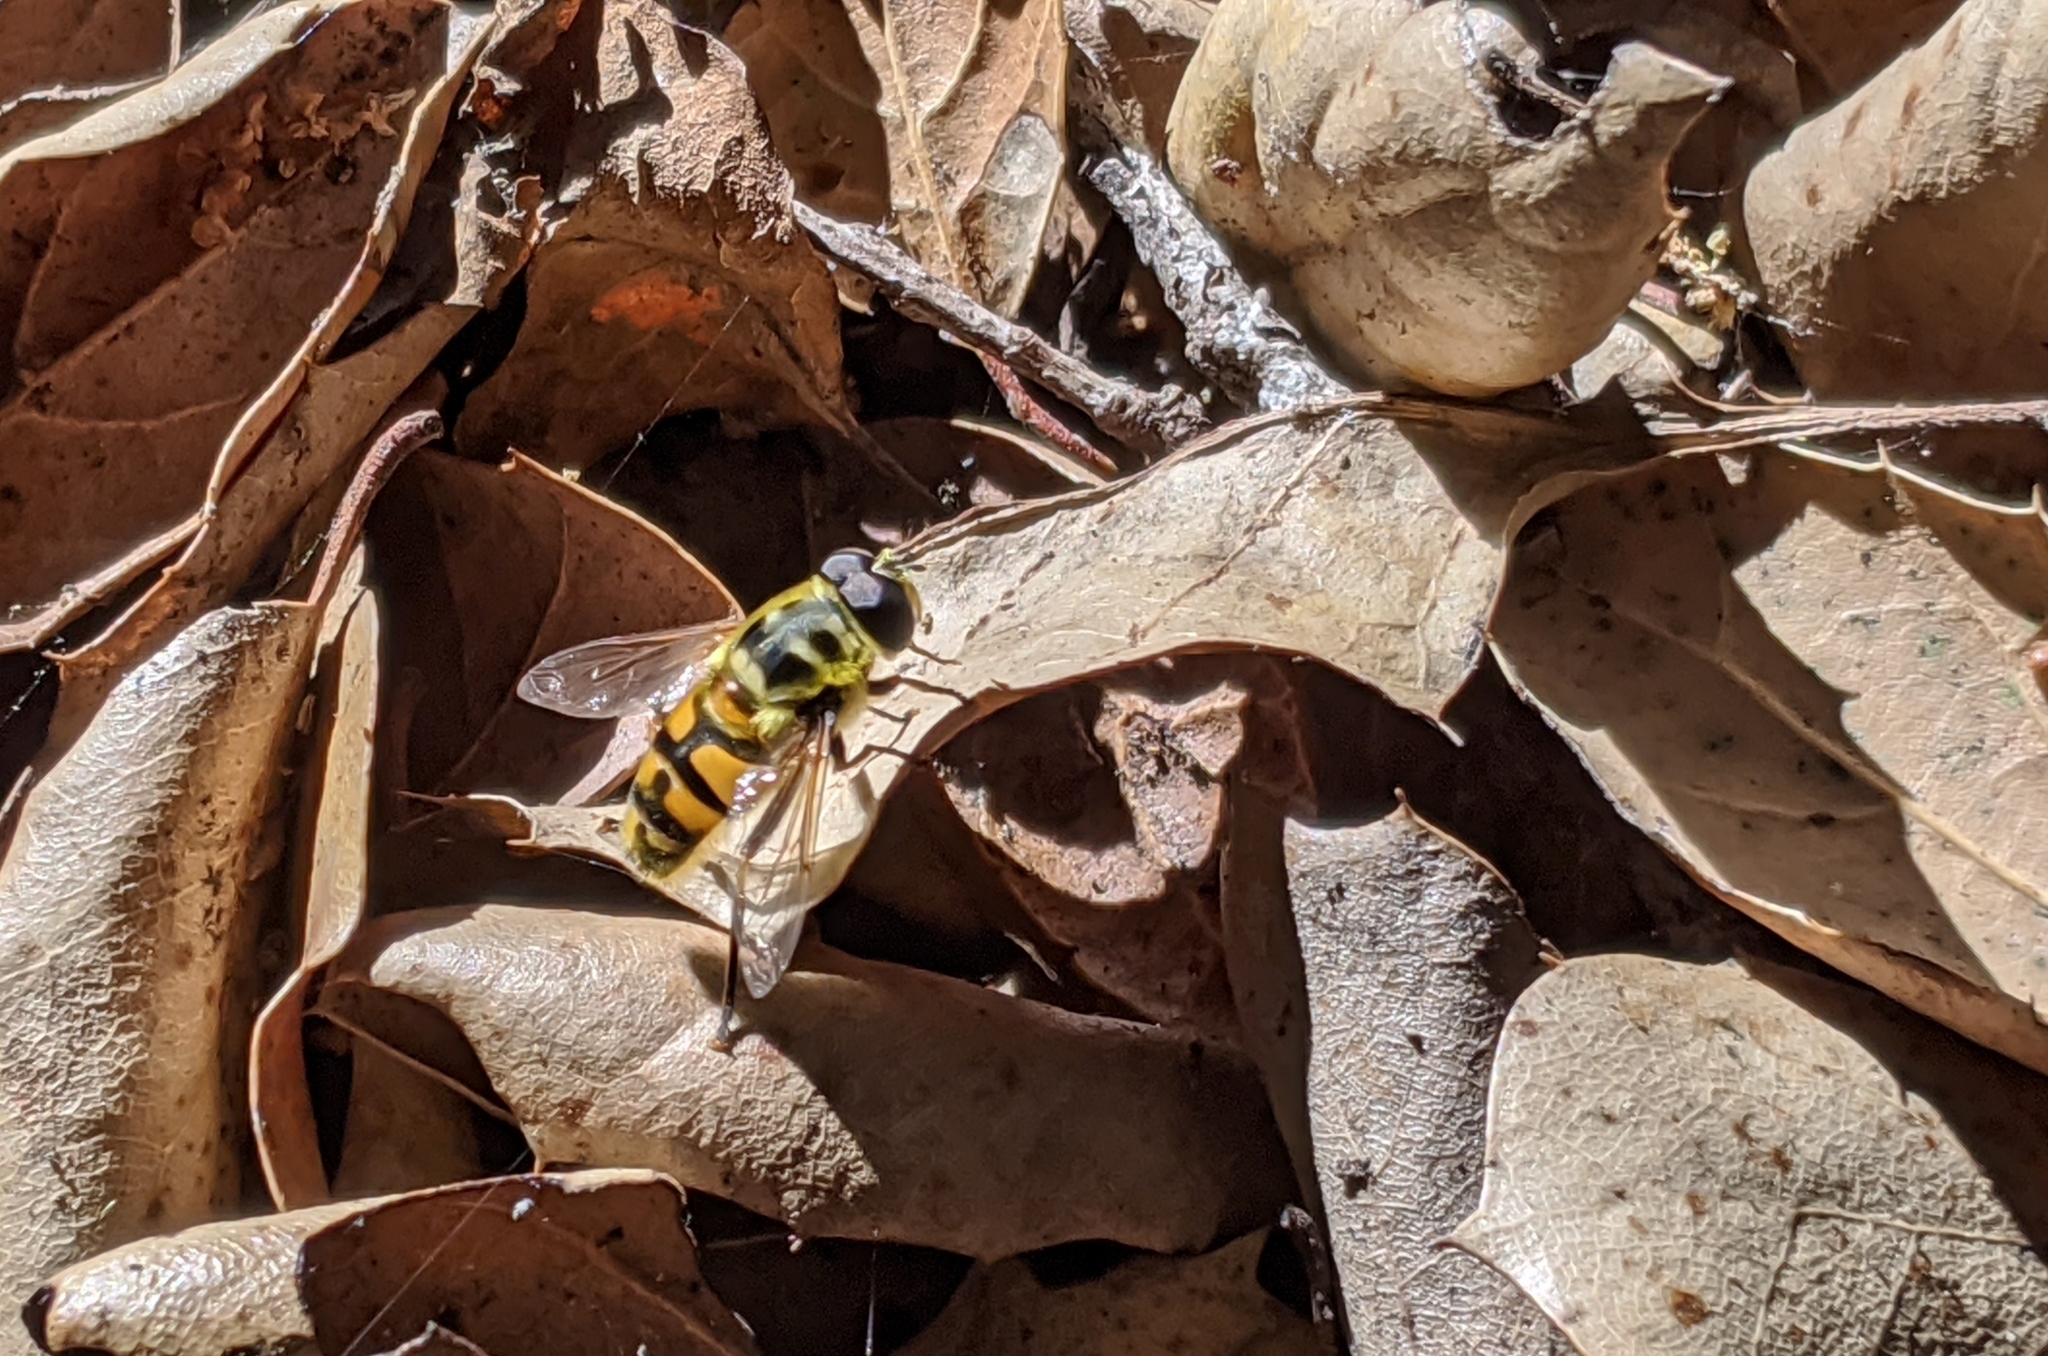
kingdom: Animalia
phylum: Arthropoda
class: Insecta
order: Diptera
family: Syrphidae
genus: Myathropa
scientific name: Myathropa florea
